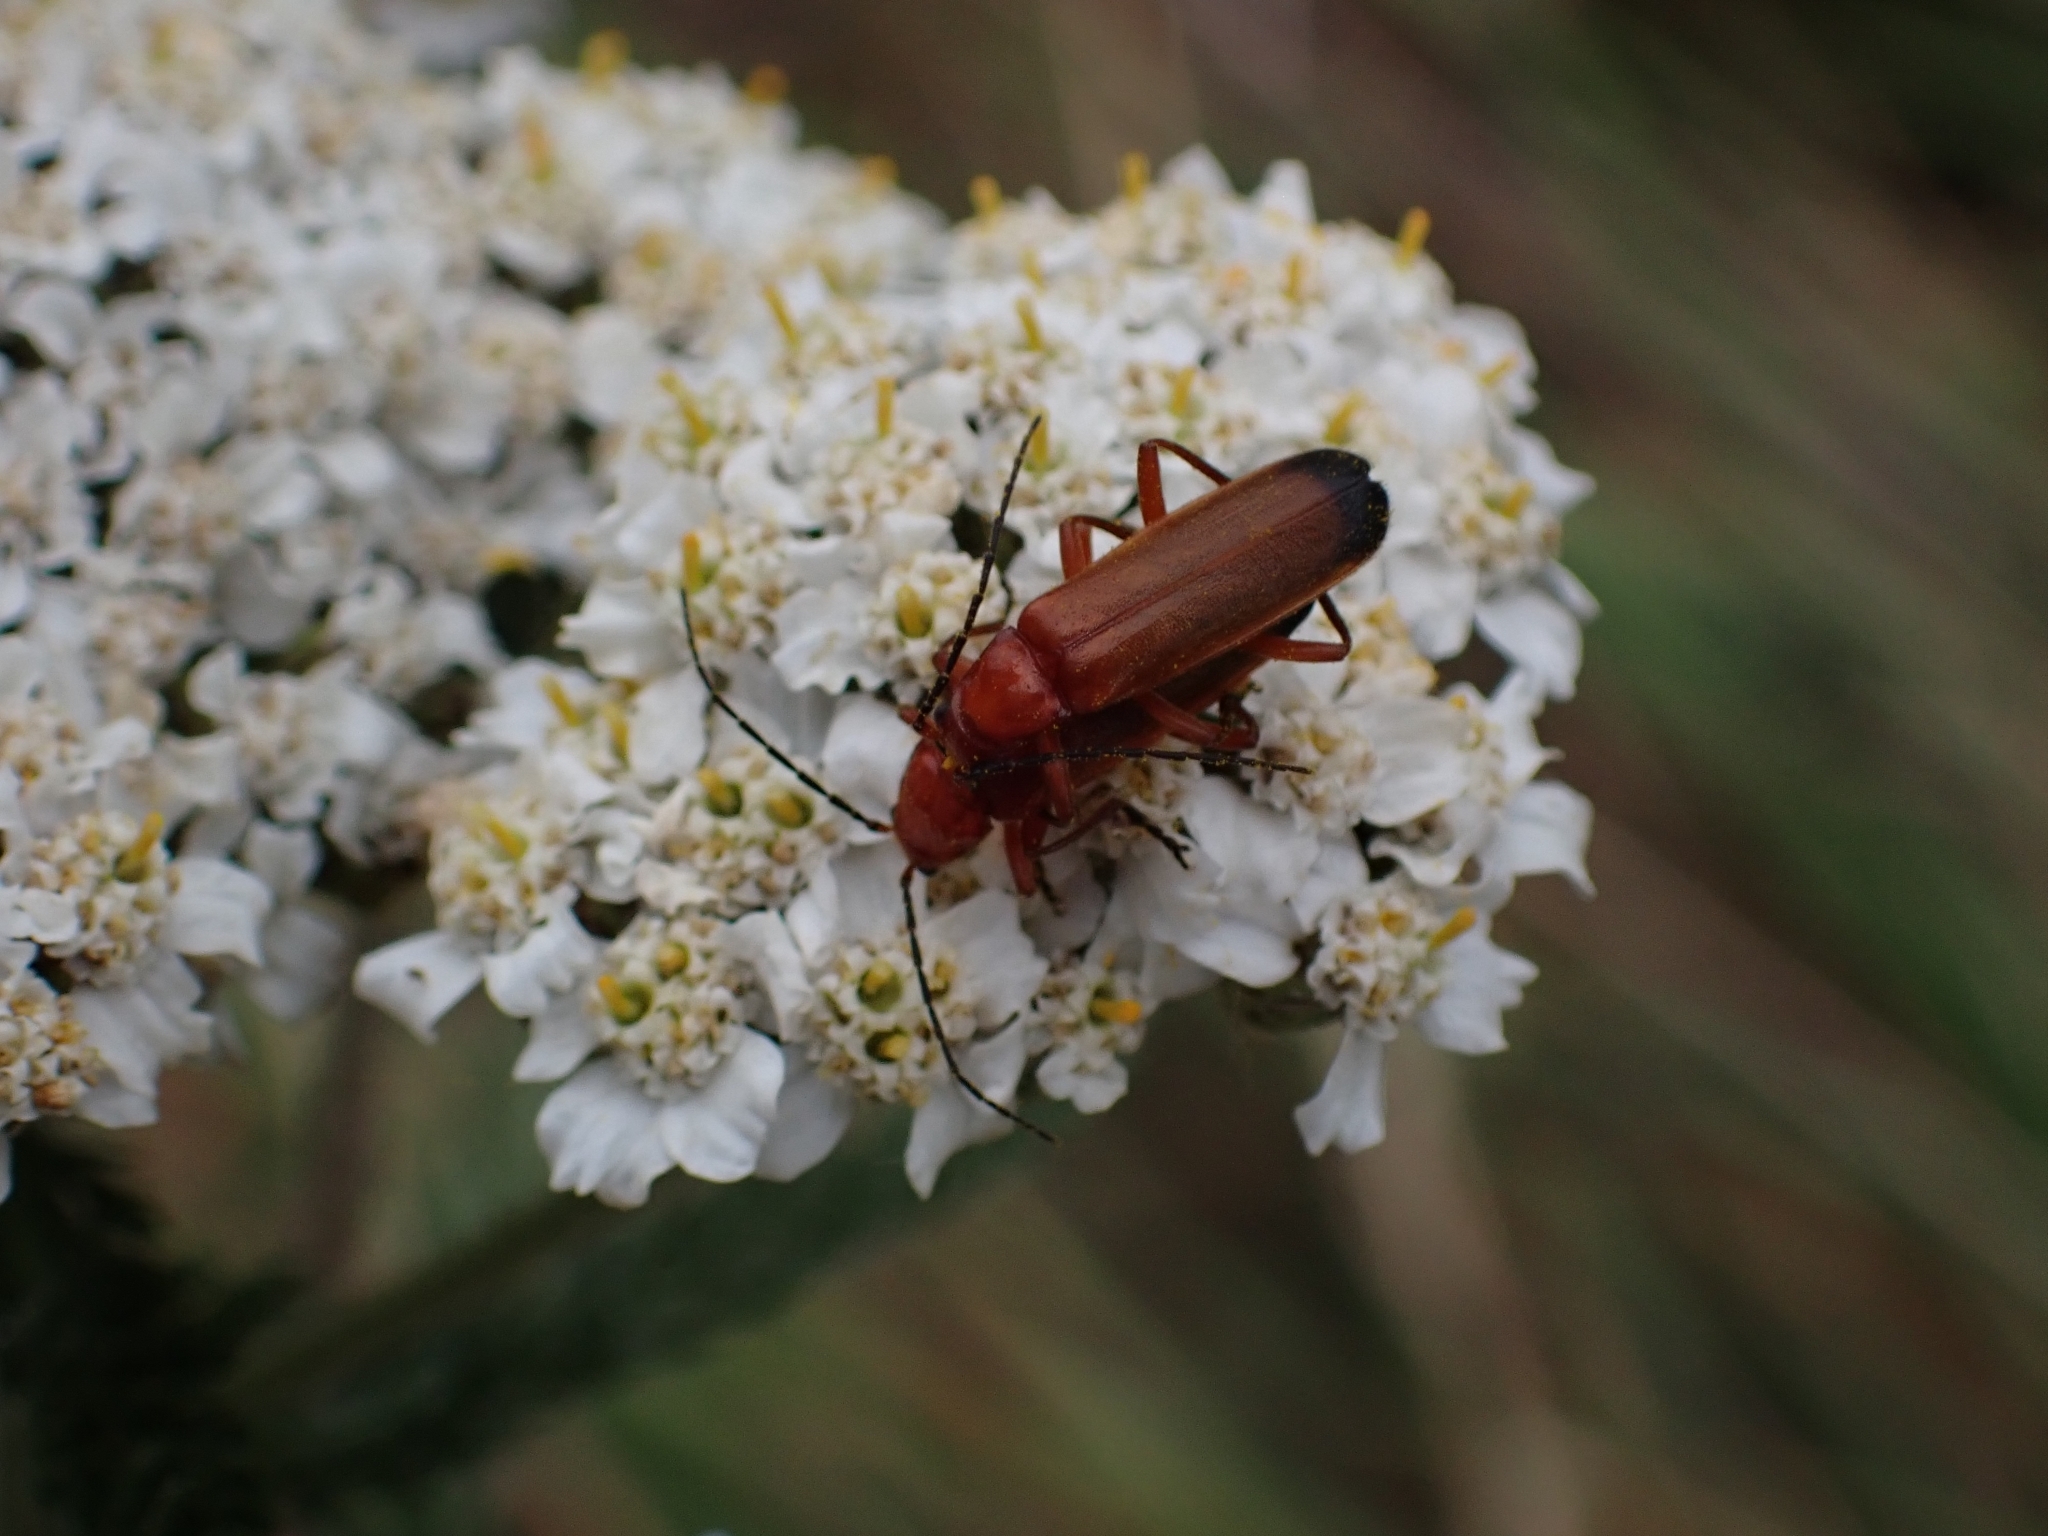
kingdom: Animalia
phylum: Arthropoda
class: Insecta
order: Coleoptera
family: Cantharidae
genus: Rhagonycha
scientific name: Rhagonycha fulva
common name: Common red soldier beetle
